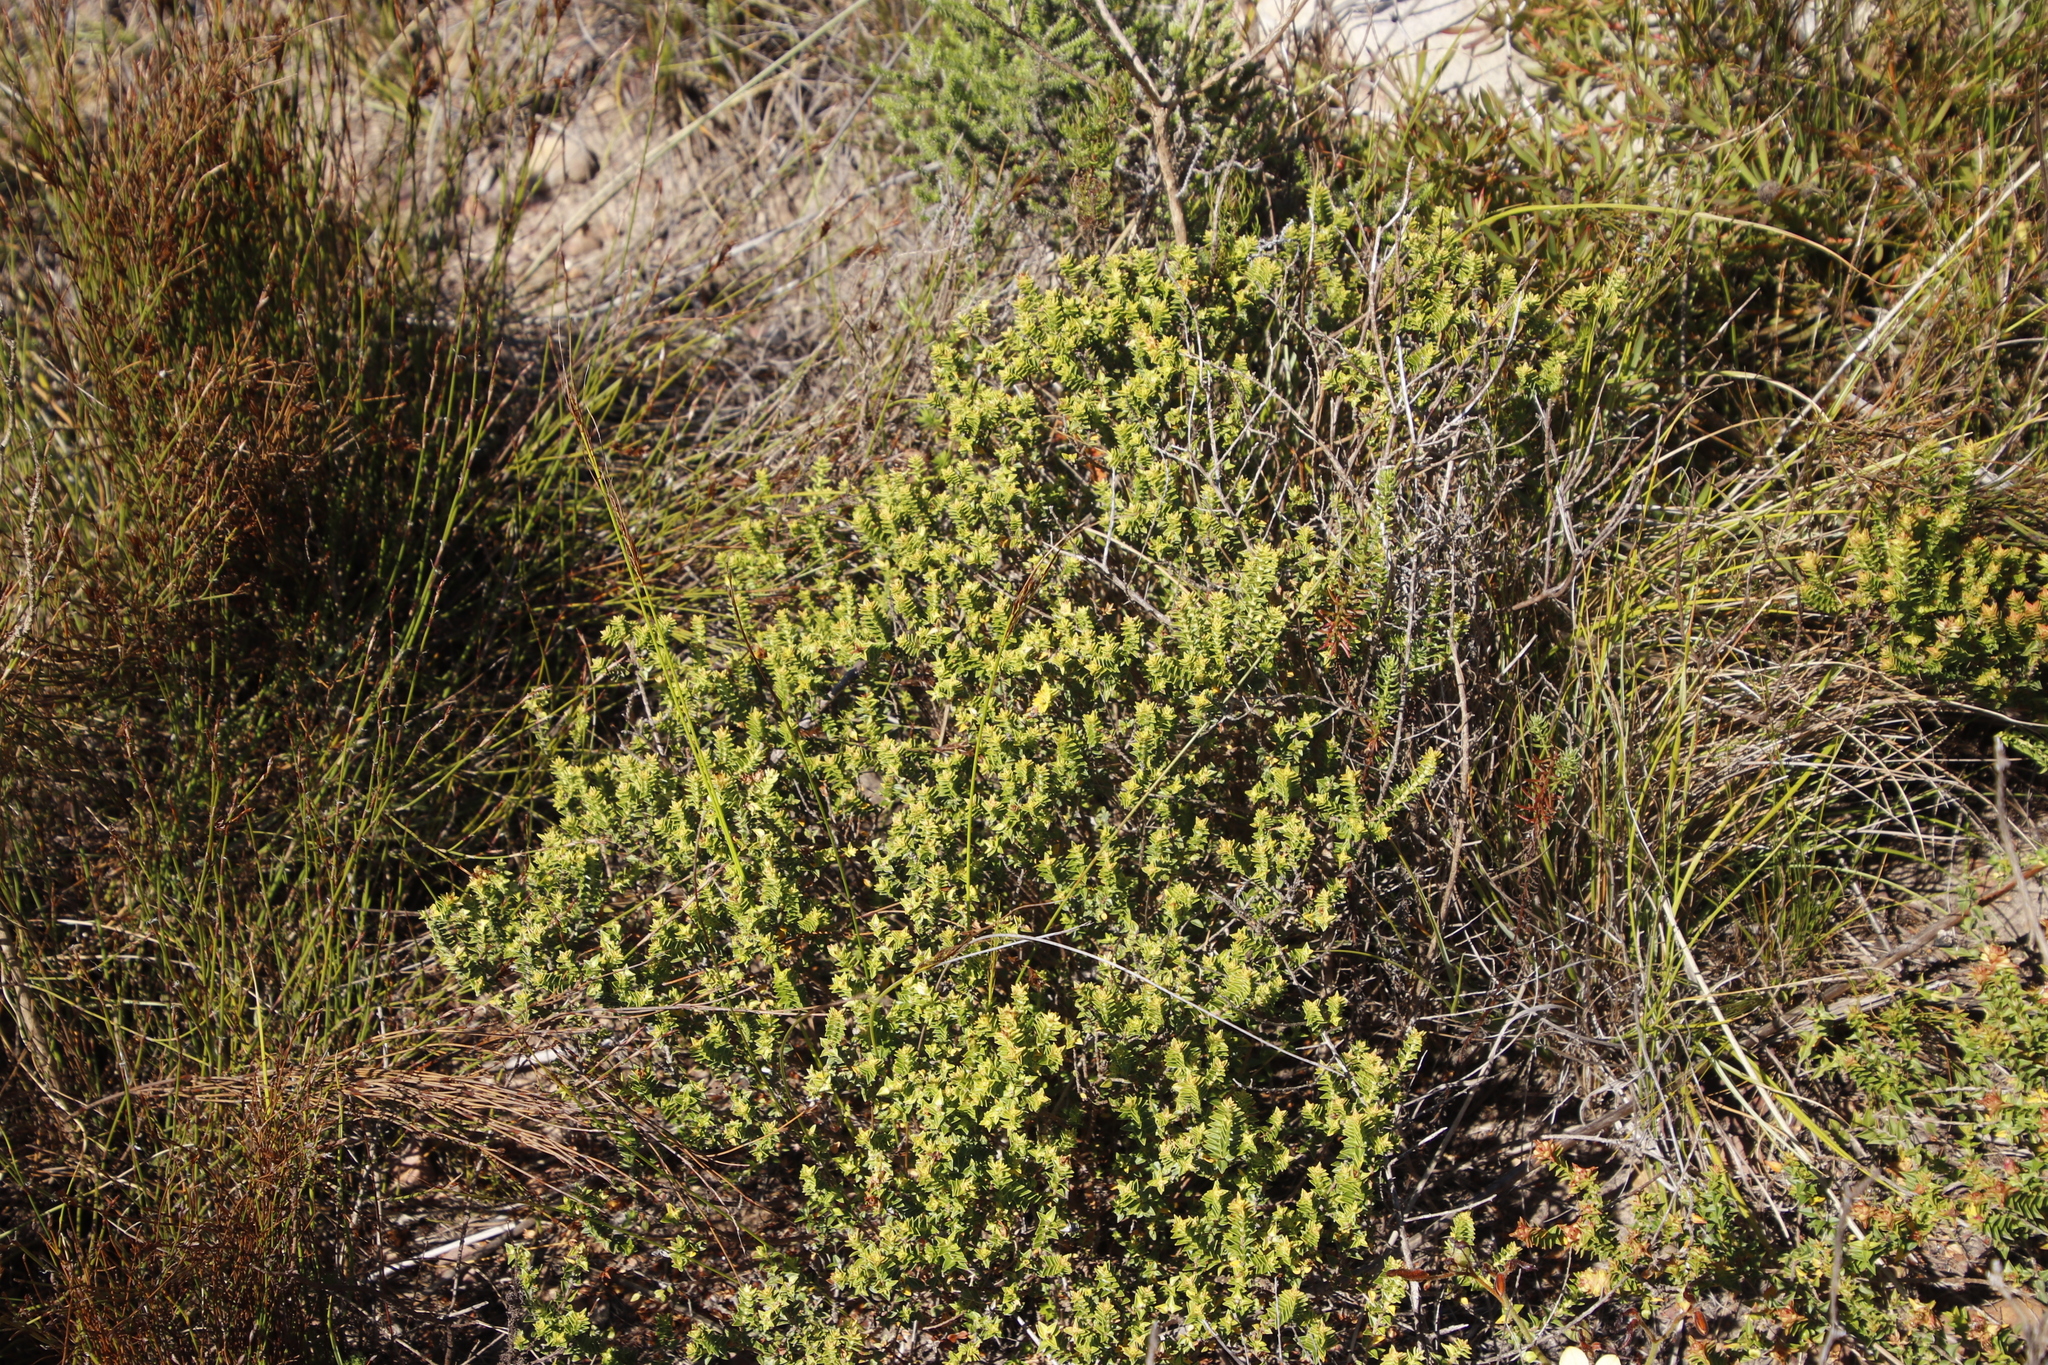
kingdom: Plantae
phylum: Tracheophyta
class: Magnoliopsida
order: Myrtales
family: Penaeaceae
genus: Penaea
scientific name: Penaea mucronata
